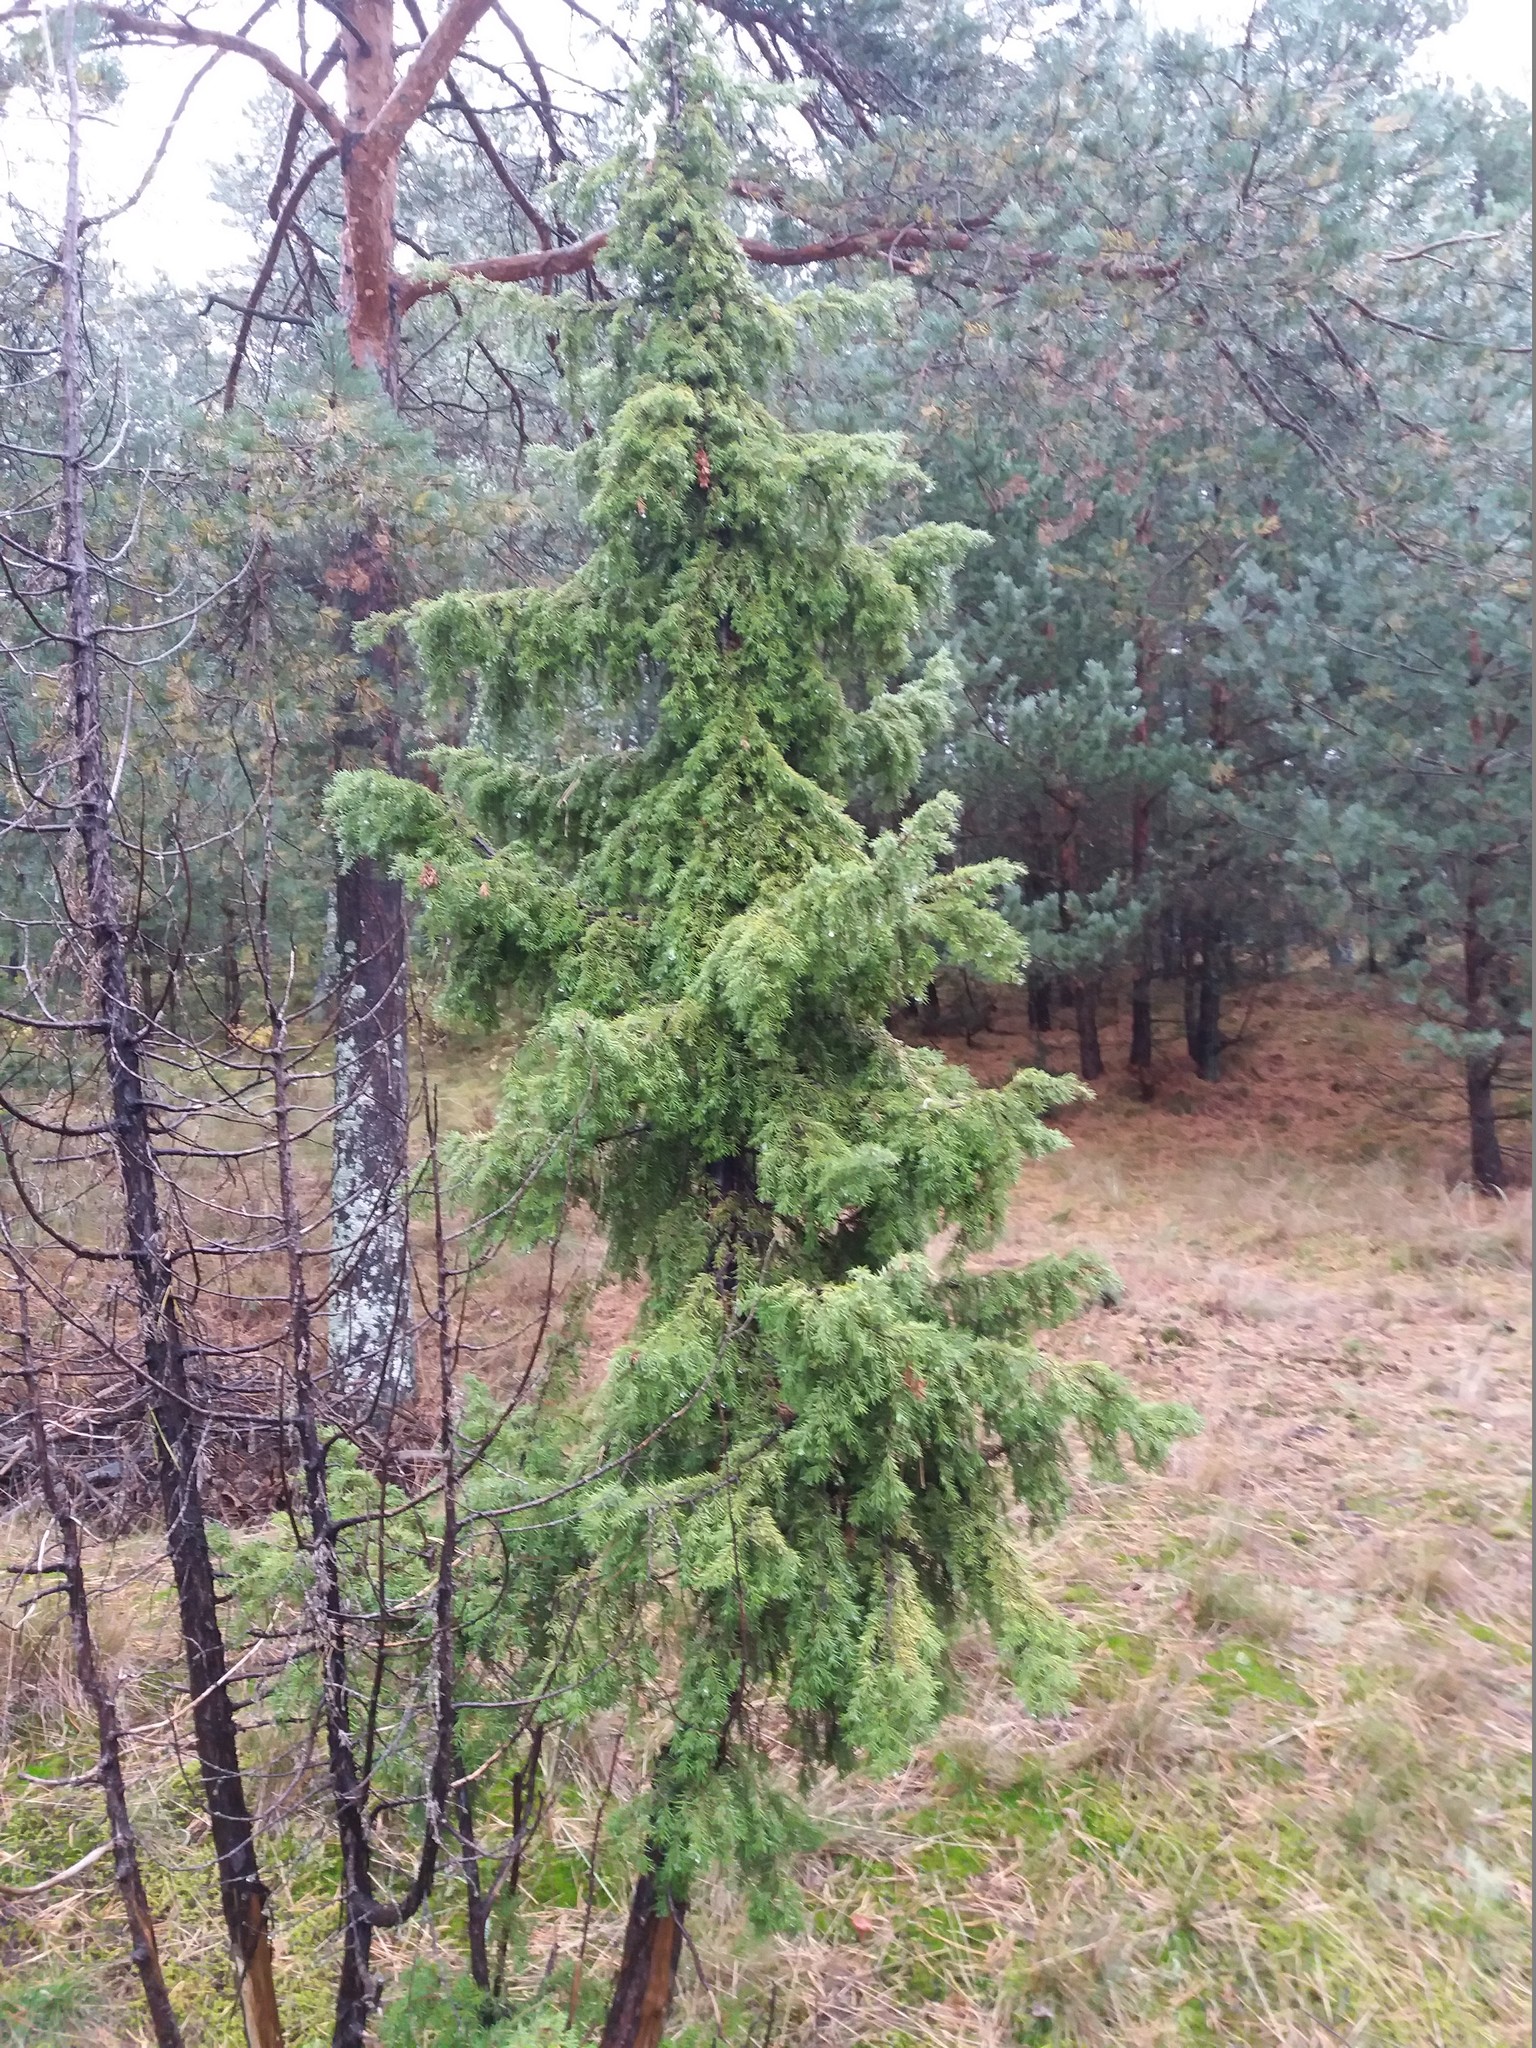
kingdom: Plantae
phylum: Tracheophyta
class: Pinopsida
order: Pinales
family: Cupressaceae
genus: Juniperus
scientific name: Juniperus communis
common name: Common juniper
